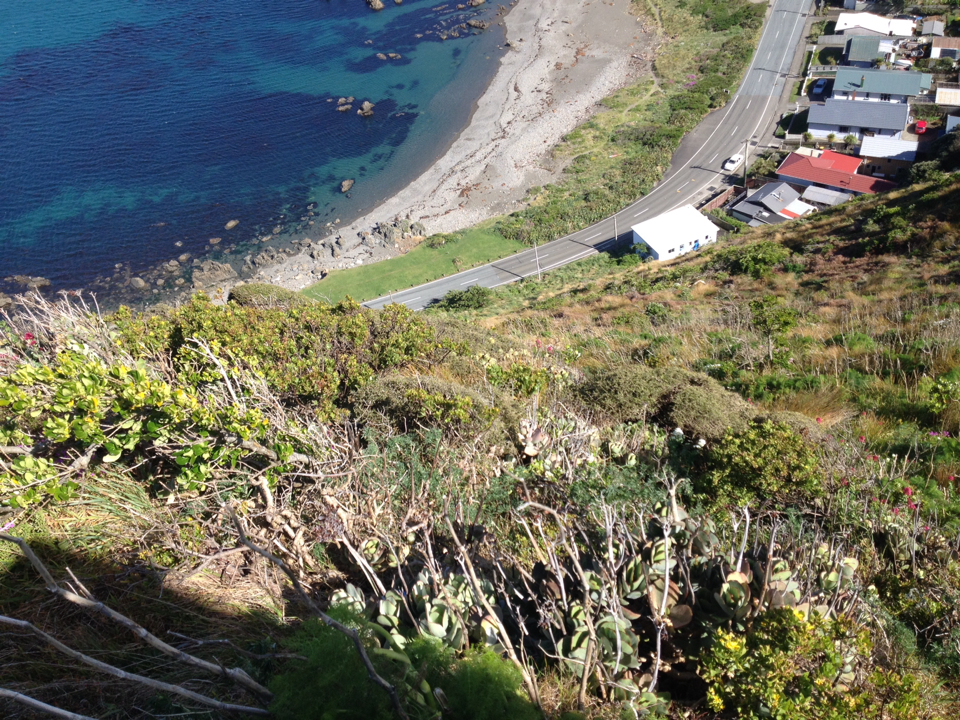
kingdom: Plantae
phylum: Tracheophyta
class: Magnoliopsida
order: Saxifragales
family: Crassulaceae
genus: Cotyledon
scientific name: Cotyledon orbiculata
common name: Pig's ear
